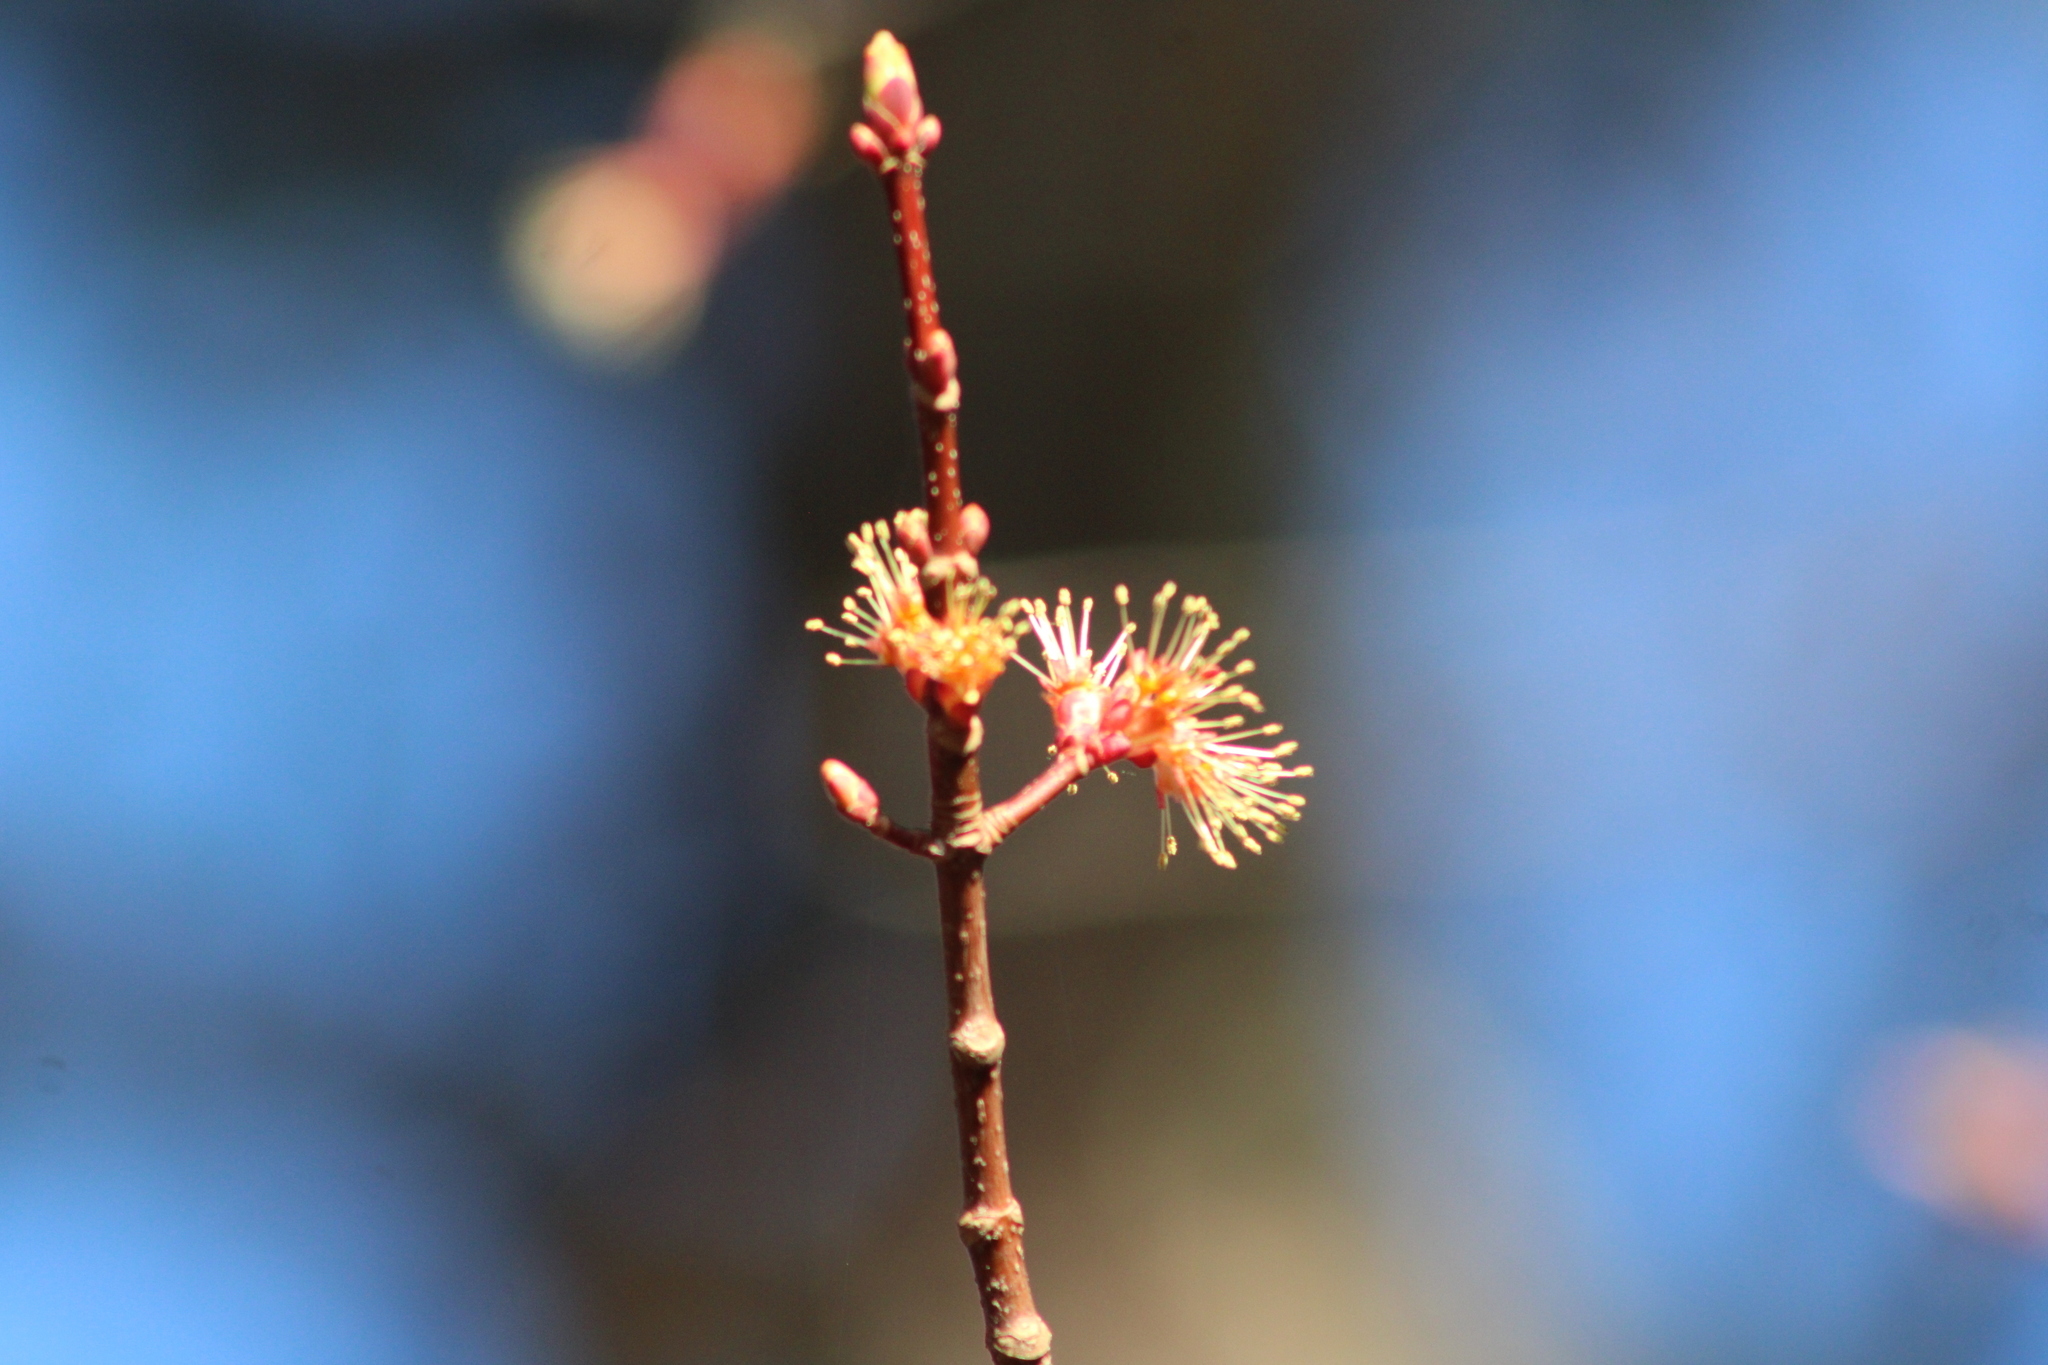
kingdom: Plantae
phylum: Tracheophyta
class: Magnoliopsida
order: Sapindales
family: Sapindaceae
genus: Acer
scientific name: Acer rubrum
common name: Red maple
